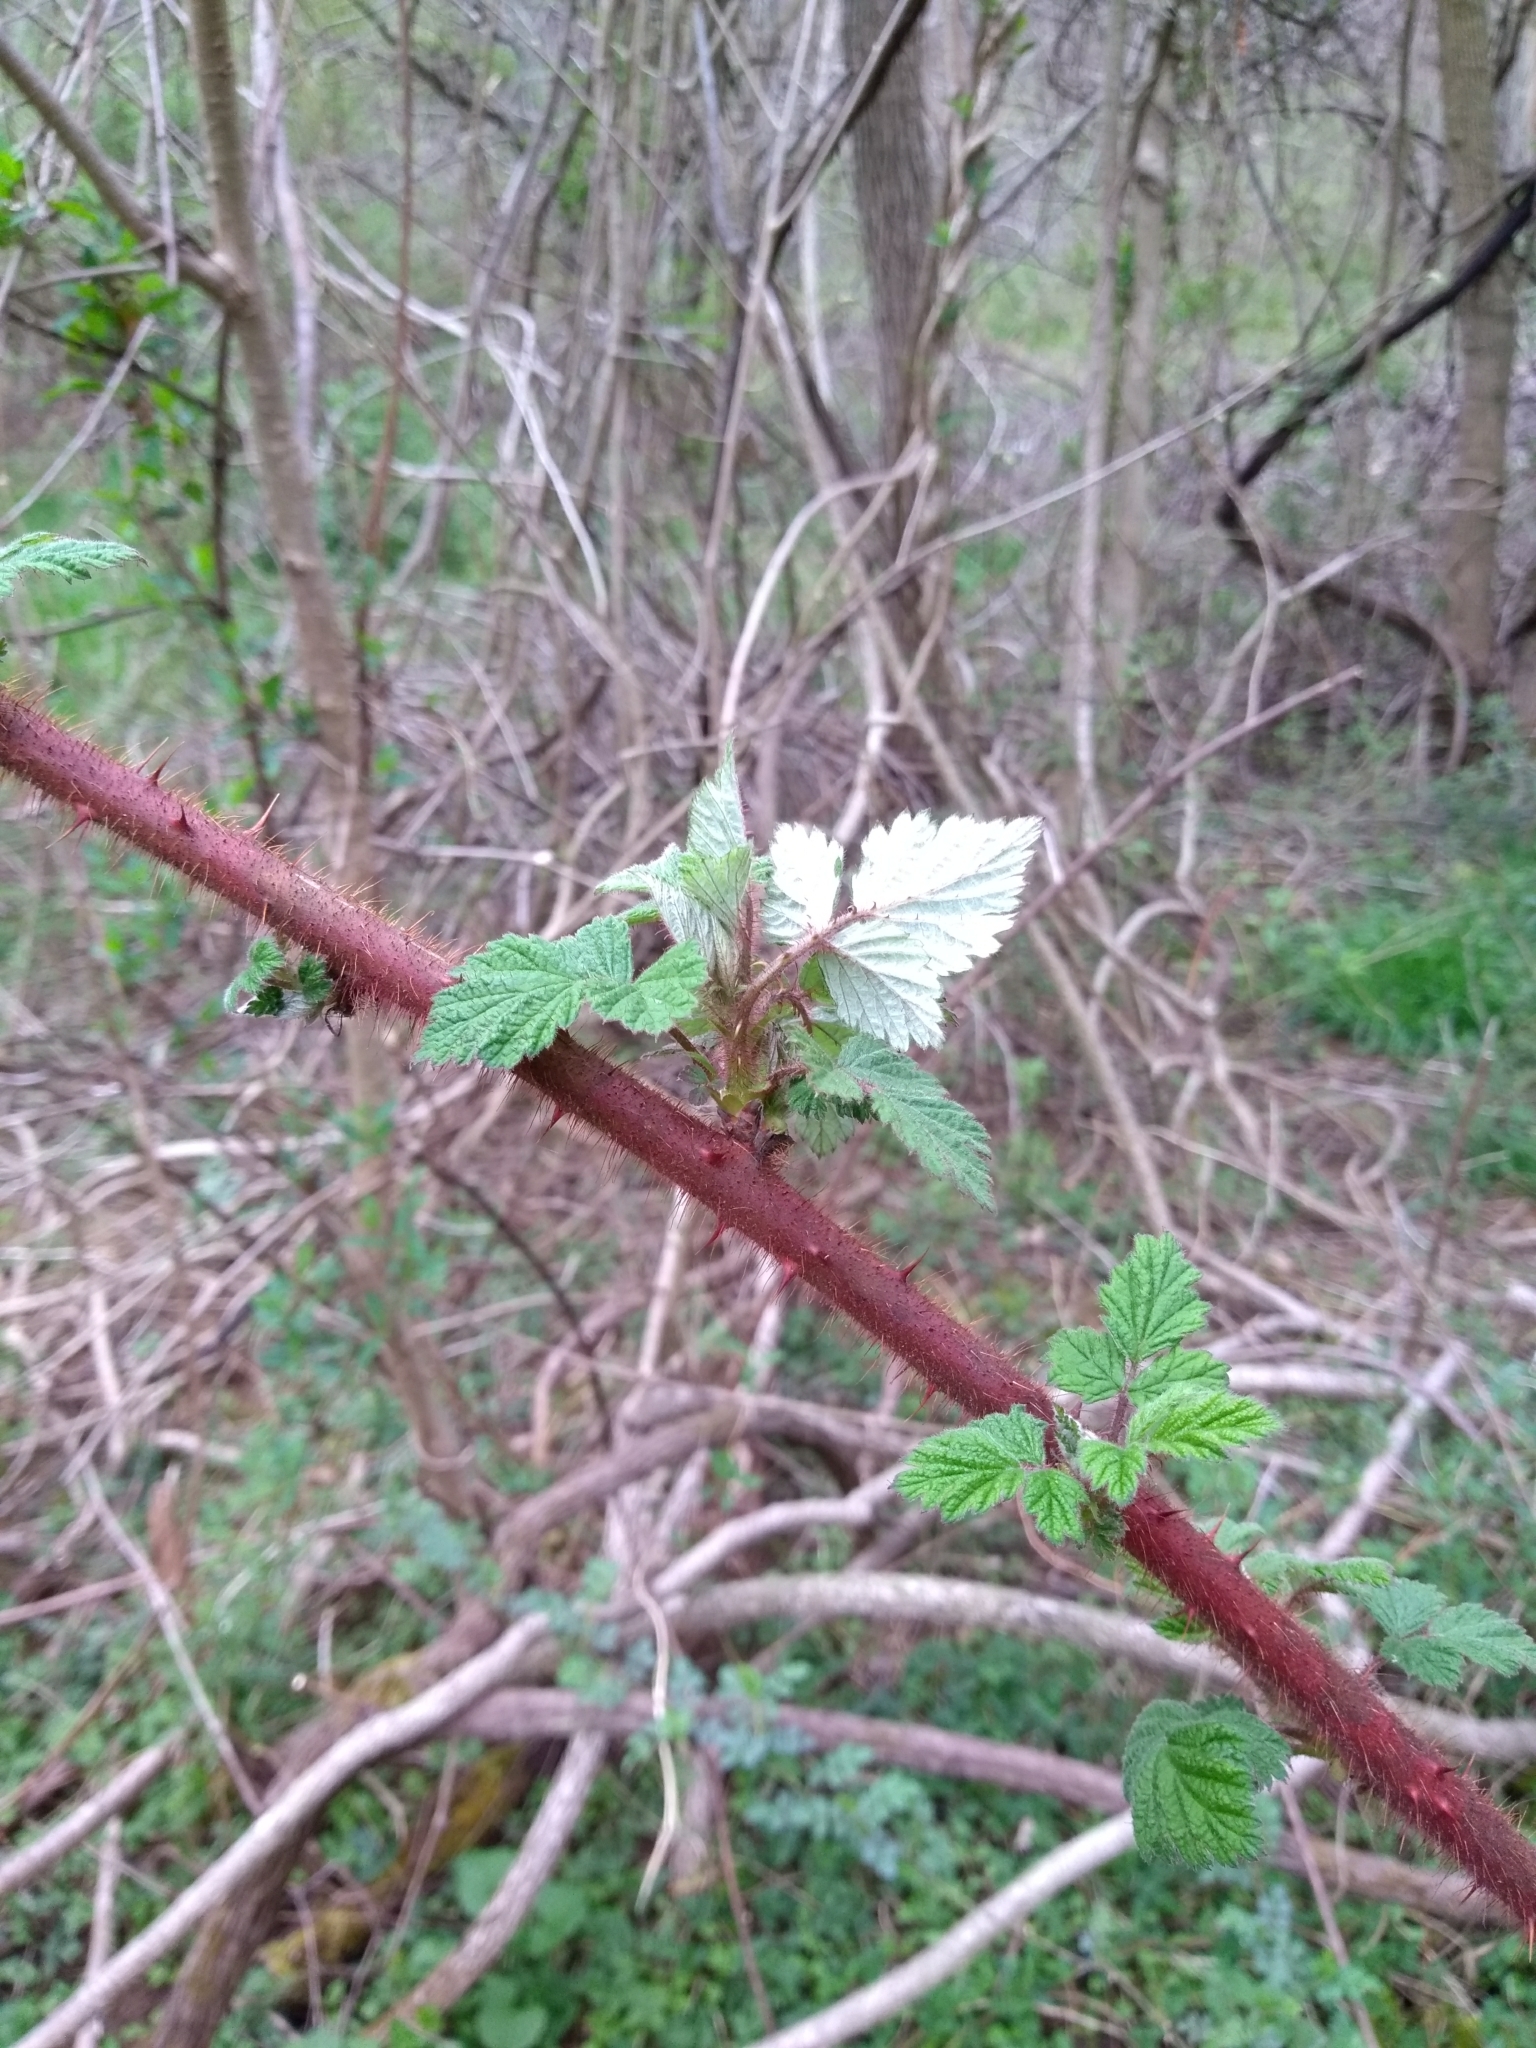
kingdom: Plantae
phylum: Tracheophyta
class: Magnoliopsida
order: Rosales
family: Rosaceae
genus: Rubus
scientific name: Rubus phoenicolasius
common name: Japanese wineberry
